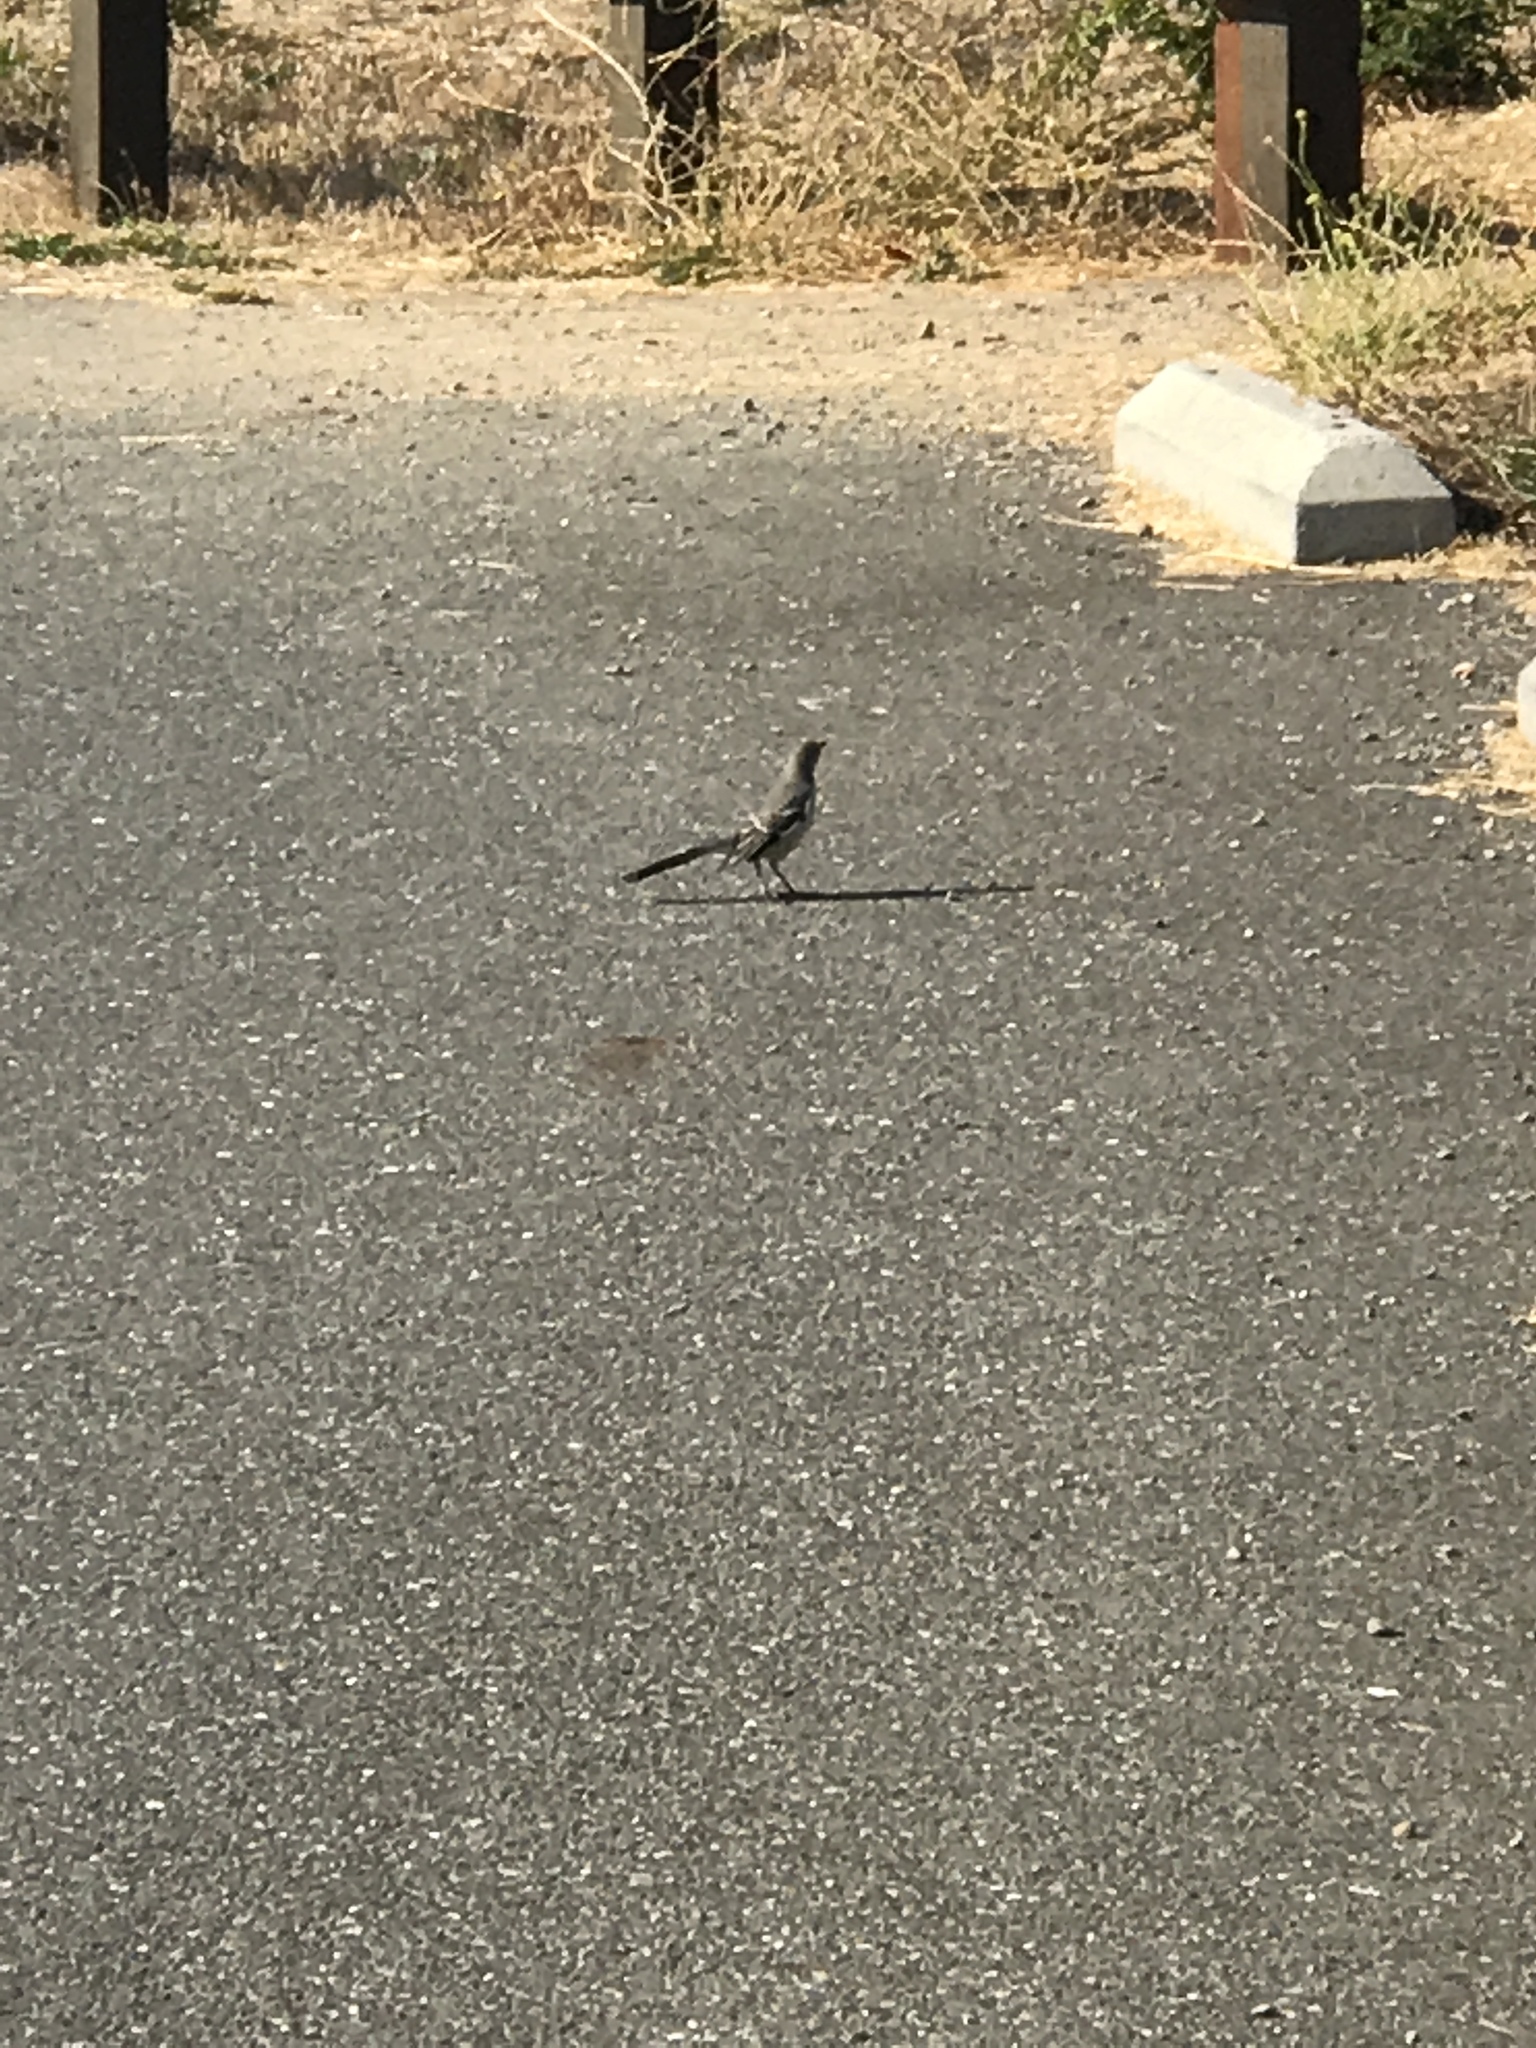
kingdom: Animalia
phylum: Chordata
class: Aves
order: Passeriformes
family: Mimidae
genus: Mimus
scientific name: Mimus polyglottos
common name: Northern mockingbird
